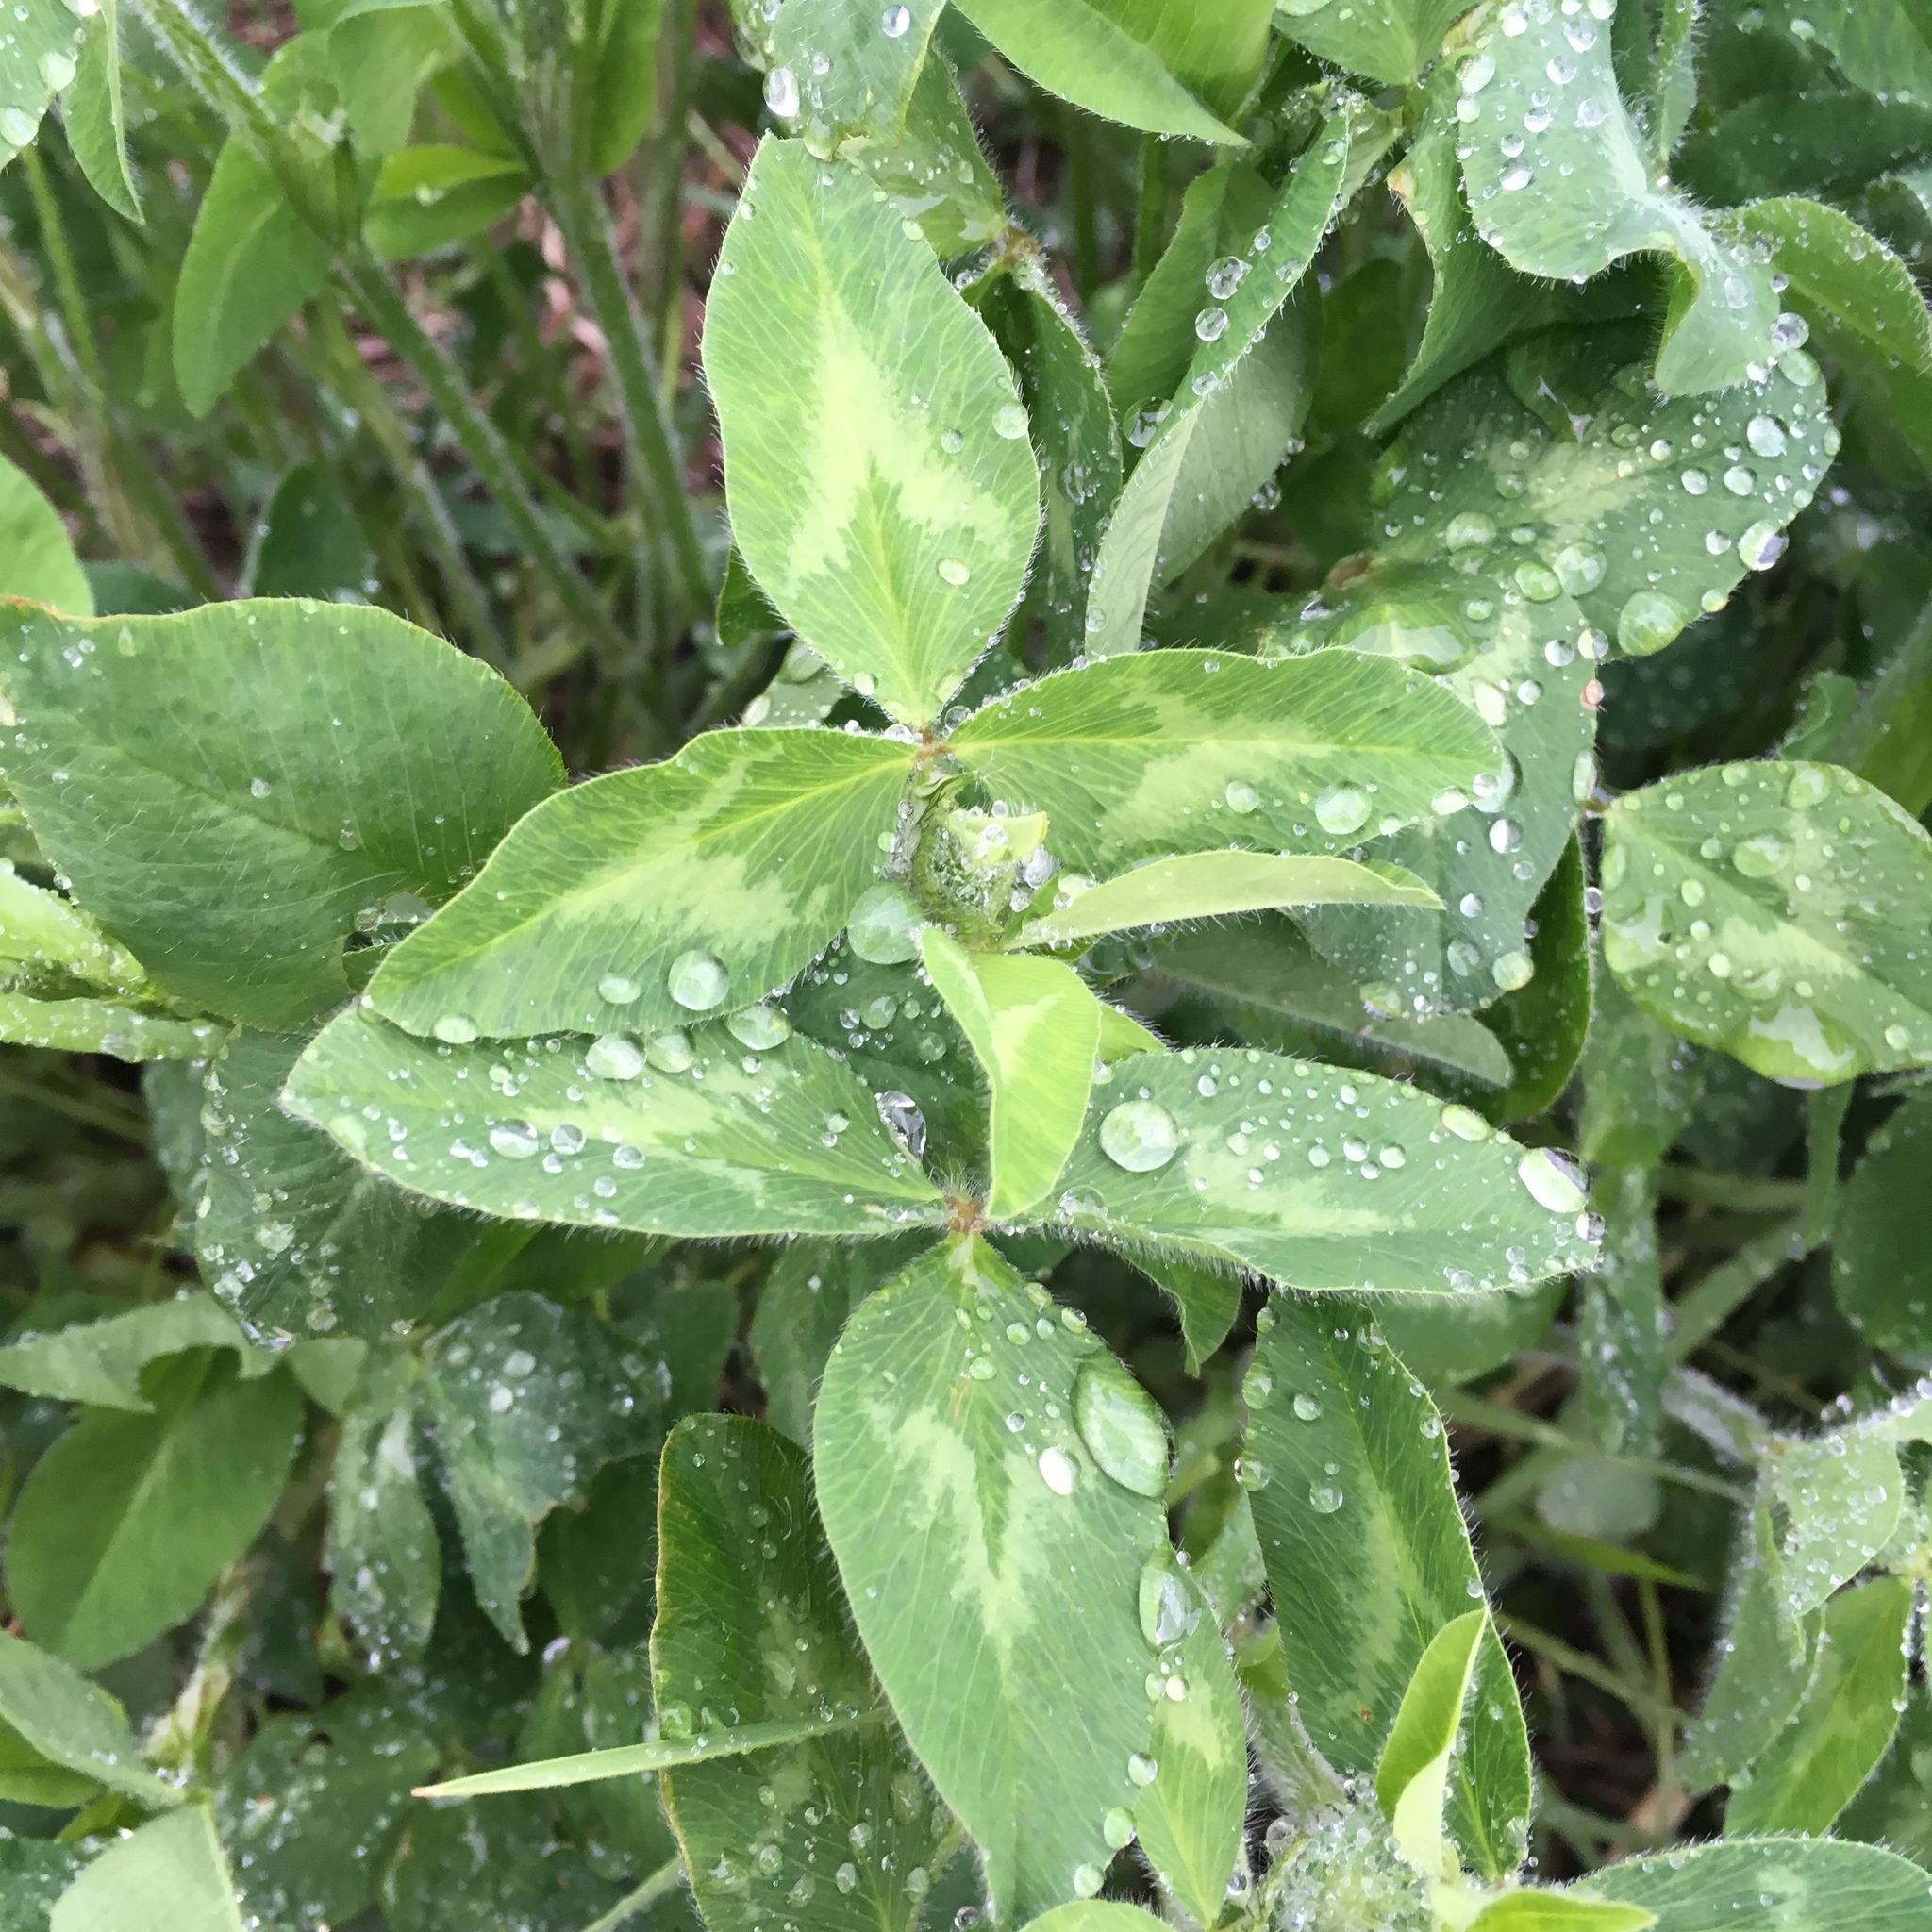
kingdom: Plantae
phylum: Tracheophyta
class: Magnoliopsida
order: Fabales
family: Fabaceae
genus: Trifolium
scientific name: Trifolium pratense
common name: Red clover
